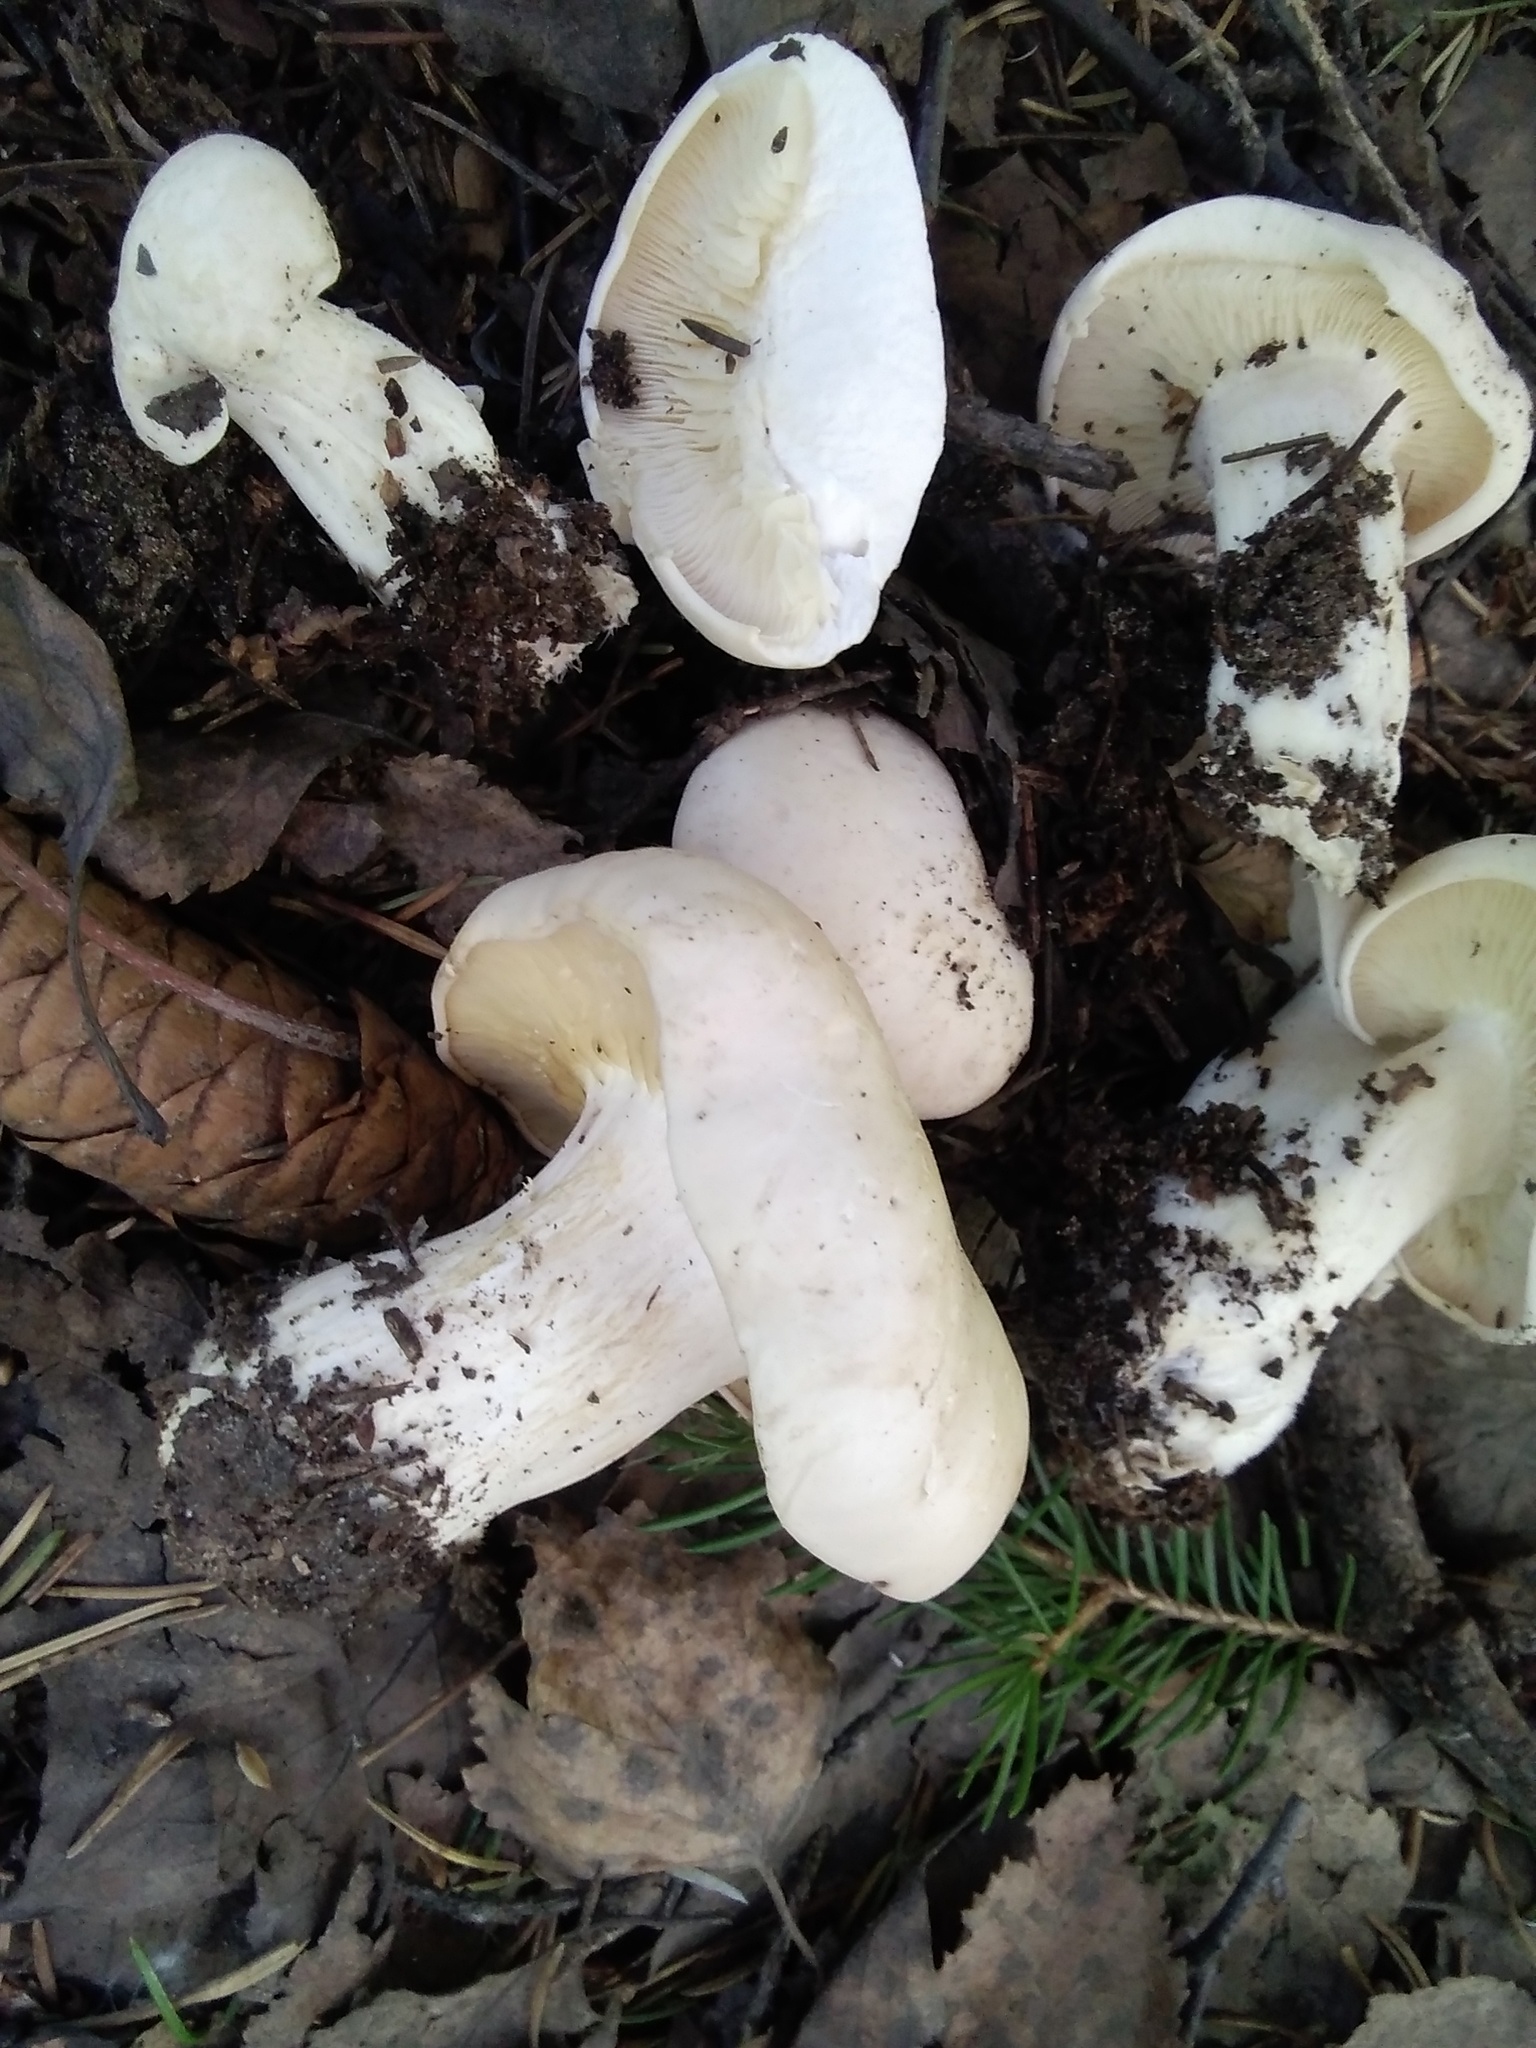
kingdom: Fungi
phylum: Basidiomycota
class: Agaricomycetes
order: Agaricales
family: Lyophyllaceae
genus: Calocybe
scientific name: Calocybe gambosa
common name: St. george's mushroom
